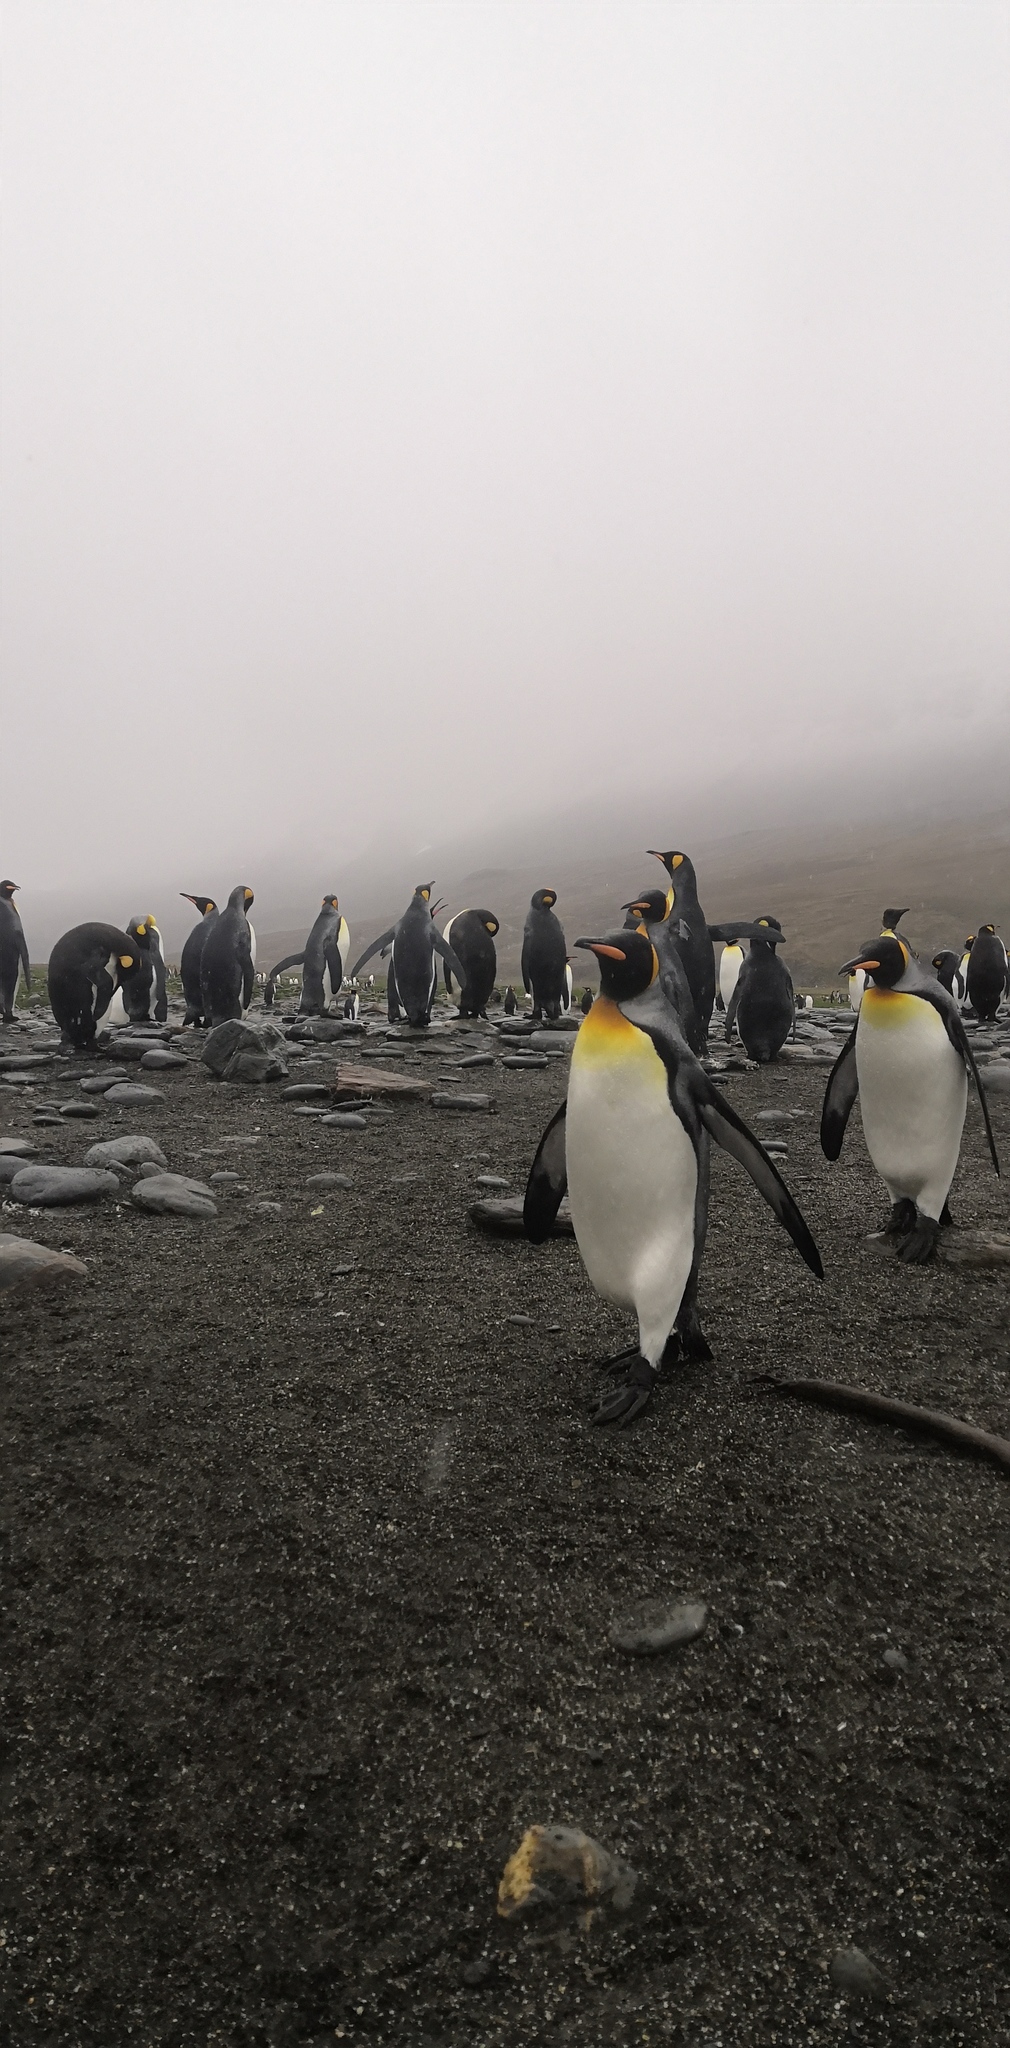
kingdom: Animalia
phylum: Chordata
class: Aves
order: Sphenisciformes
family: Spheniscidae
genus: Aptenodytes
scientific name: Aptenodytes patagonicus
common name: King penguin
